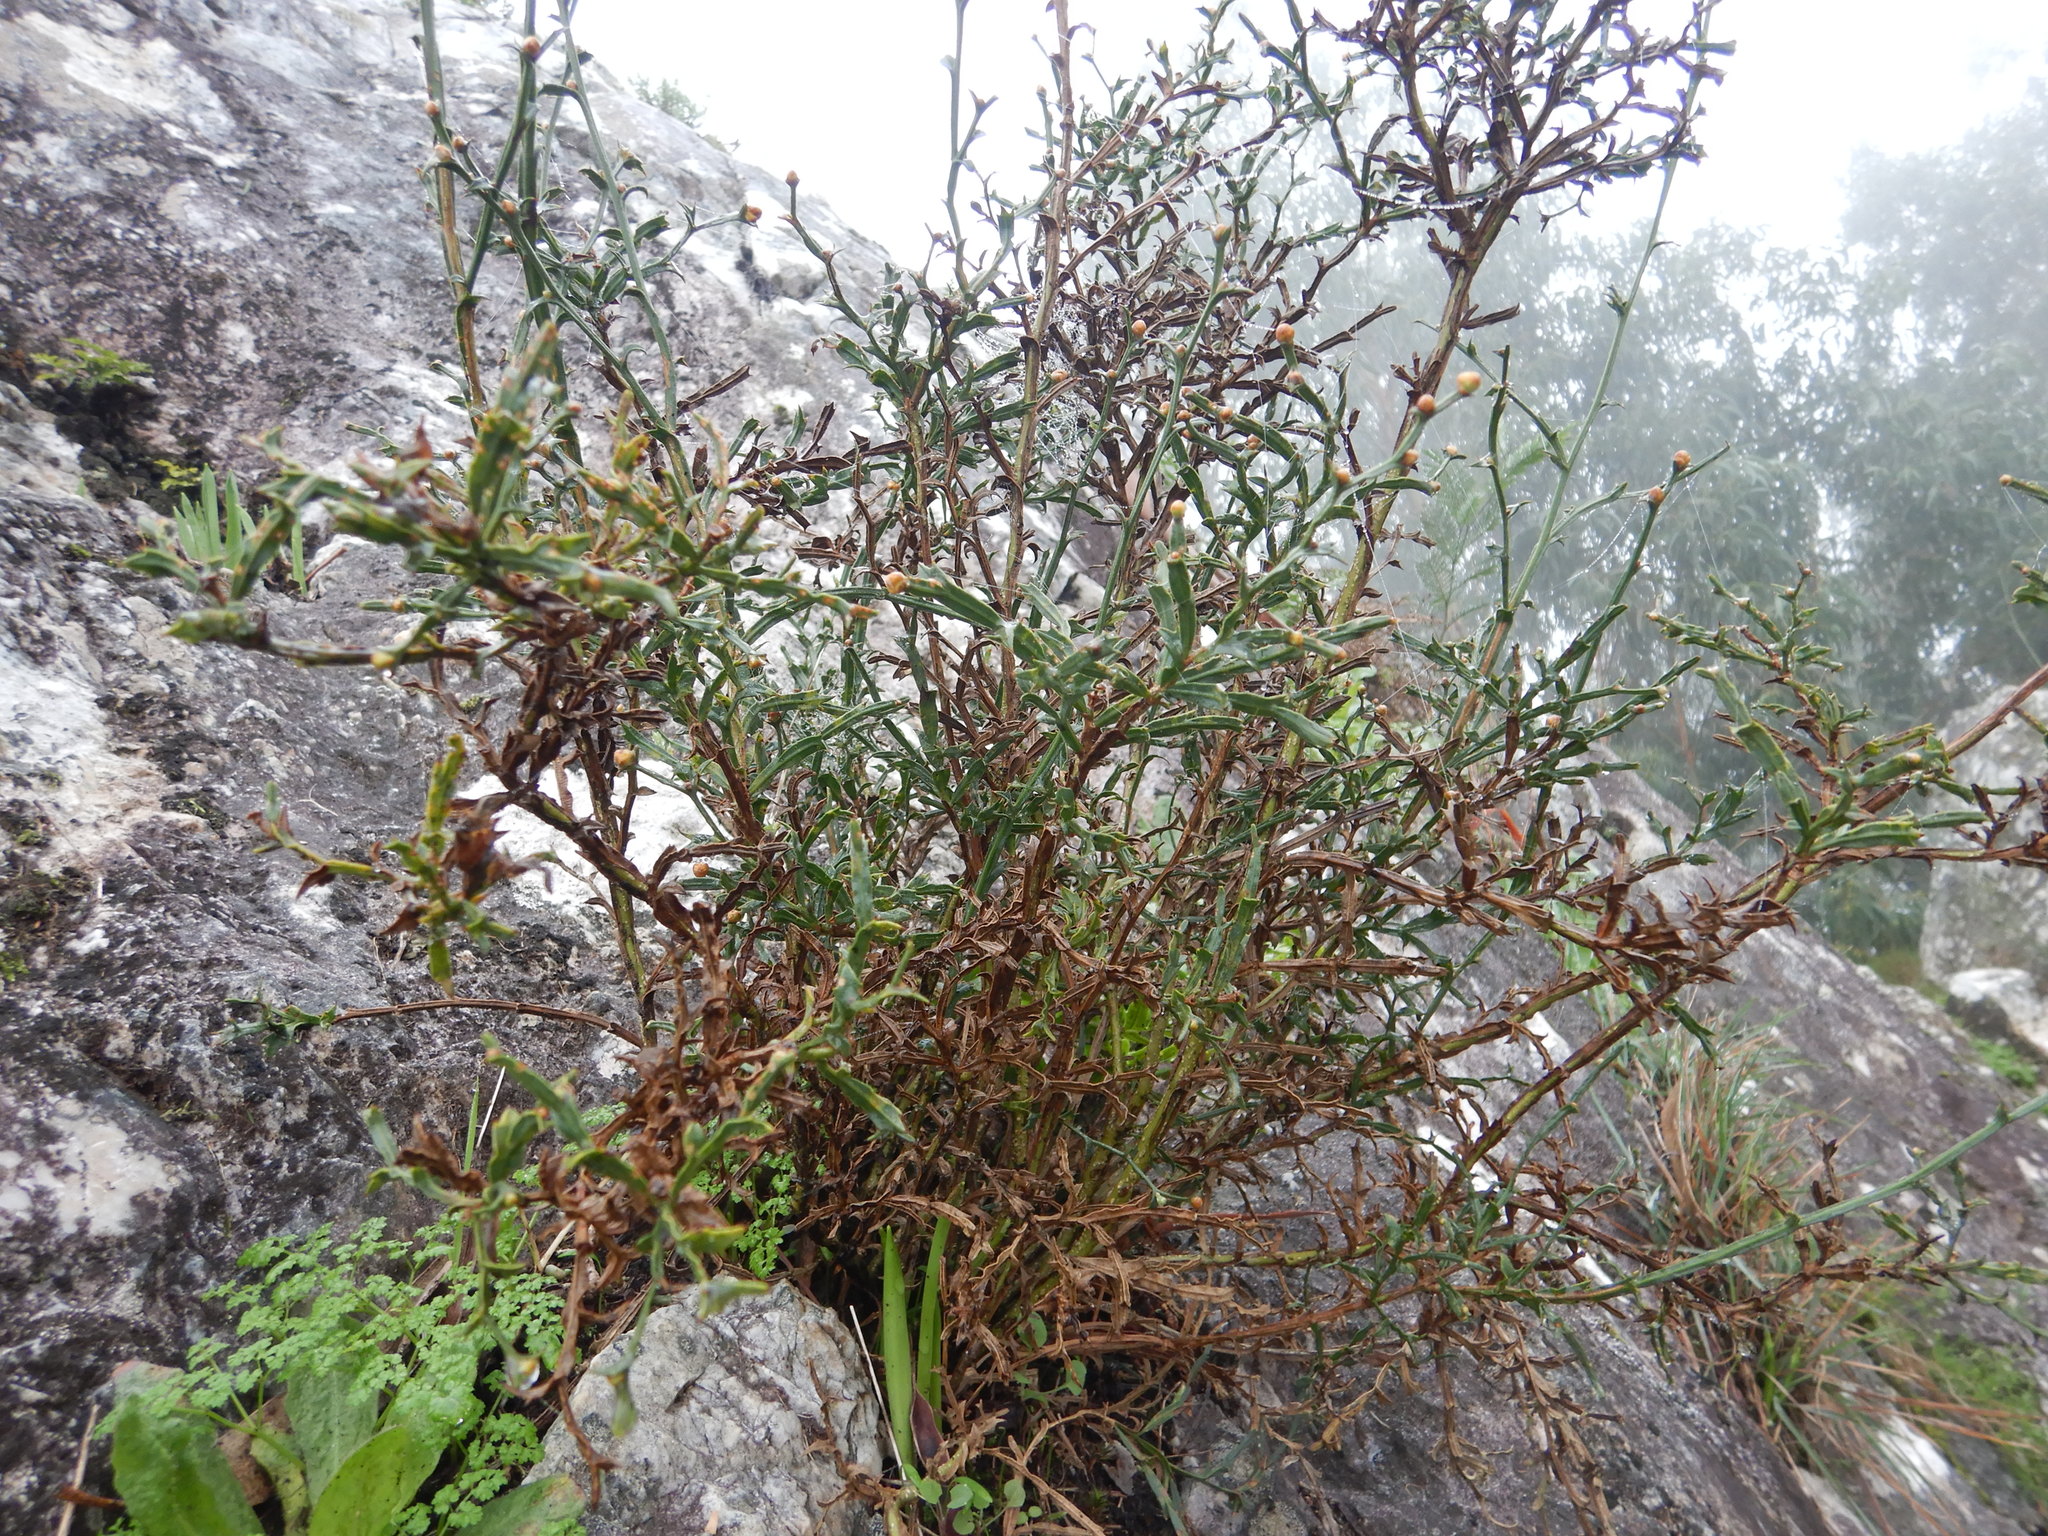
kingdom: Plantae
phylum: Tracheophyta
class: Magnoliopsida
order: Fabales
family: Fabaceae
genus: Genista
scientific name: Genista tridentata
